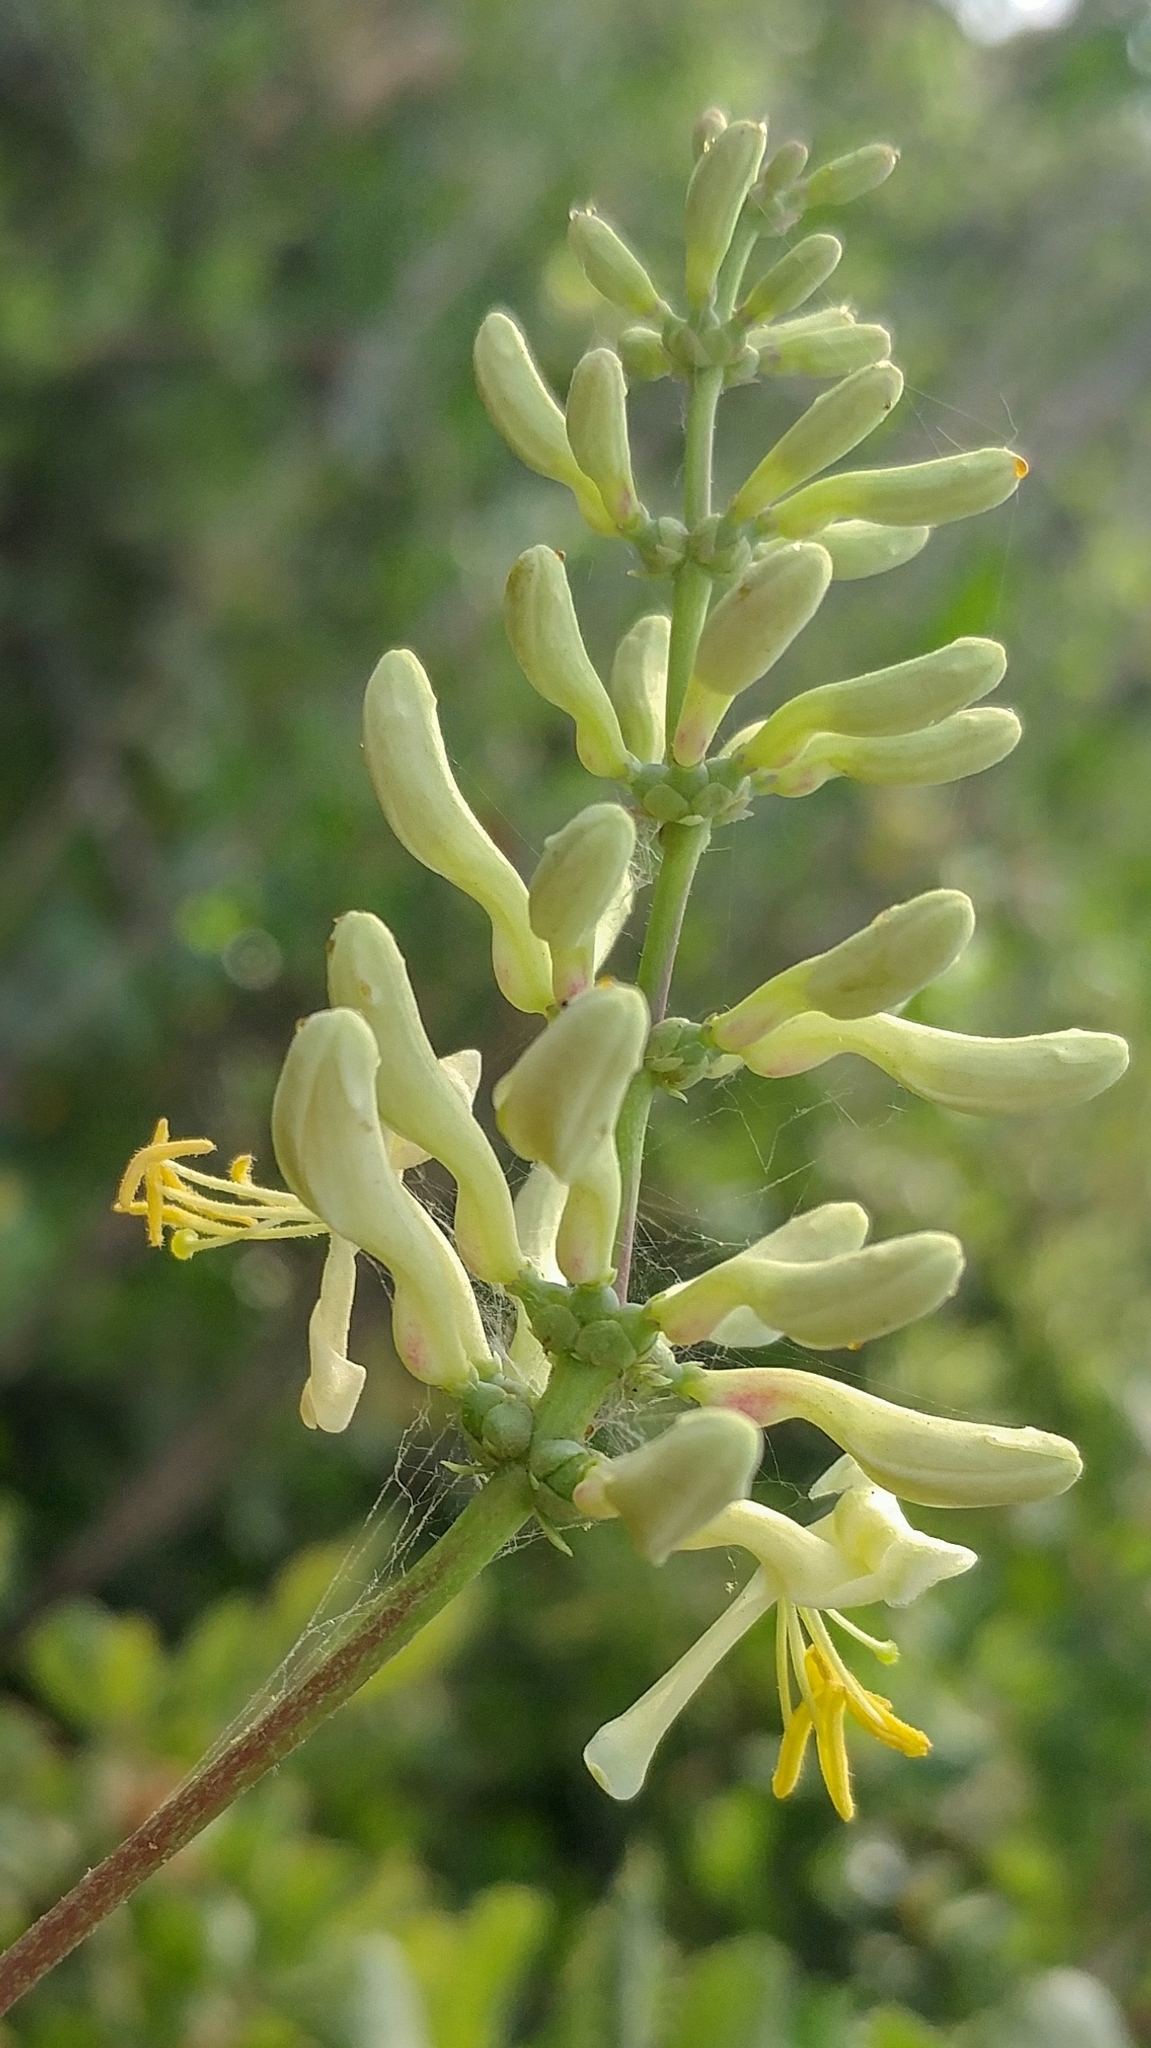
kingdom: Plantae
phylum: Tracheophyta
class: Magnoliopsida
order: Dipsacales
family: Caprifoliaceae
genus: Lonicera
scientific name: Lonicera subspicata
